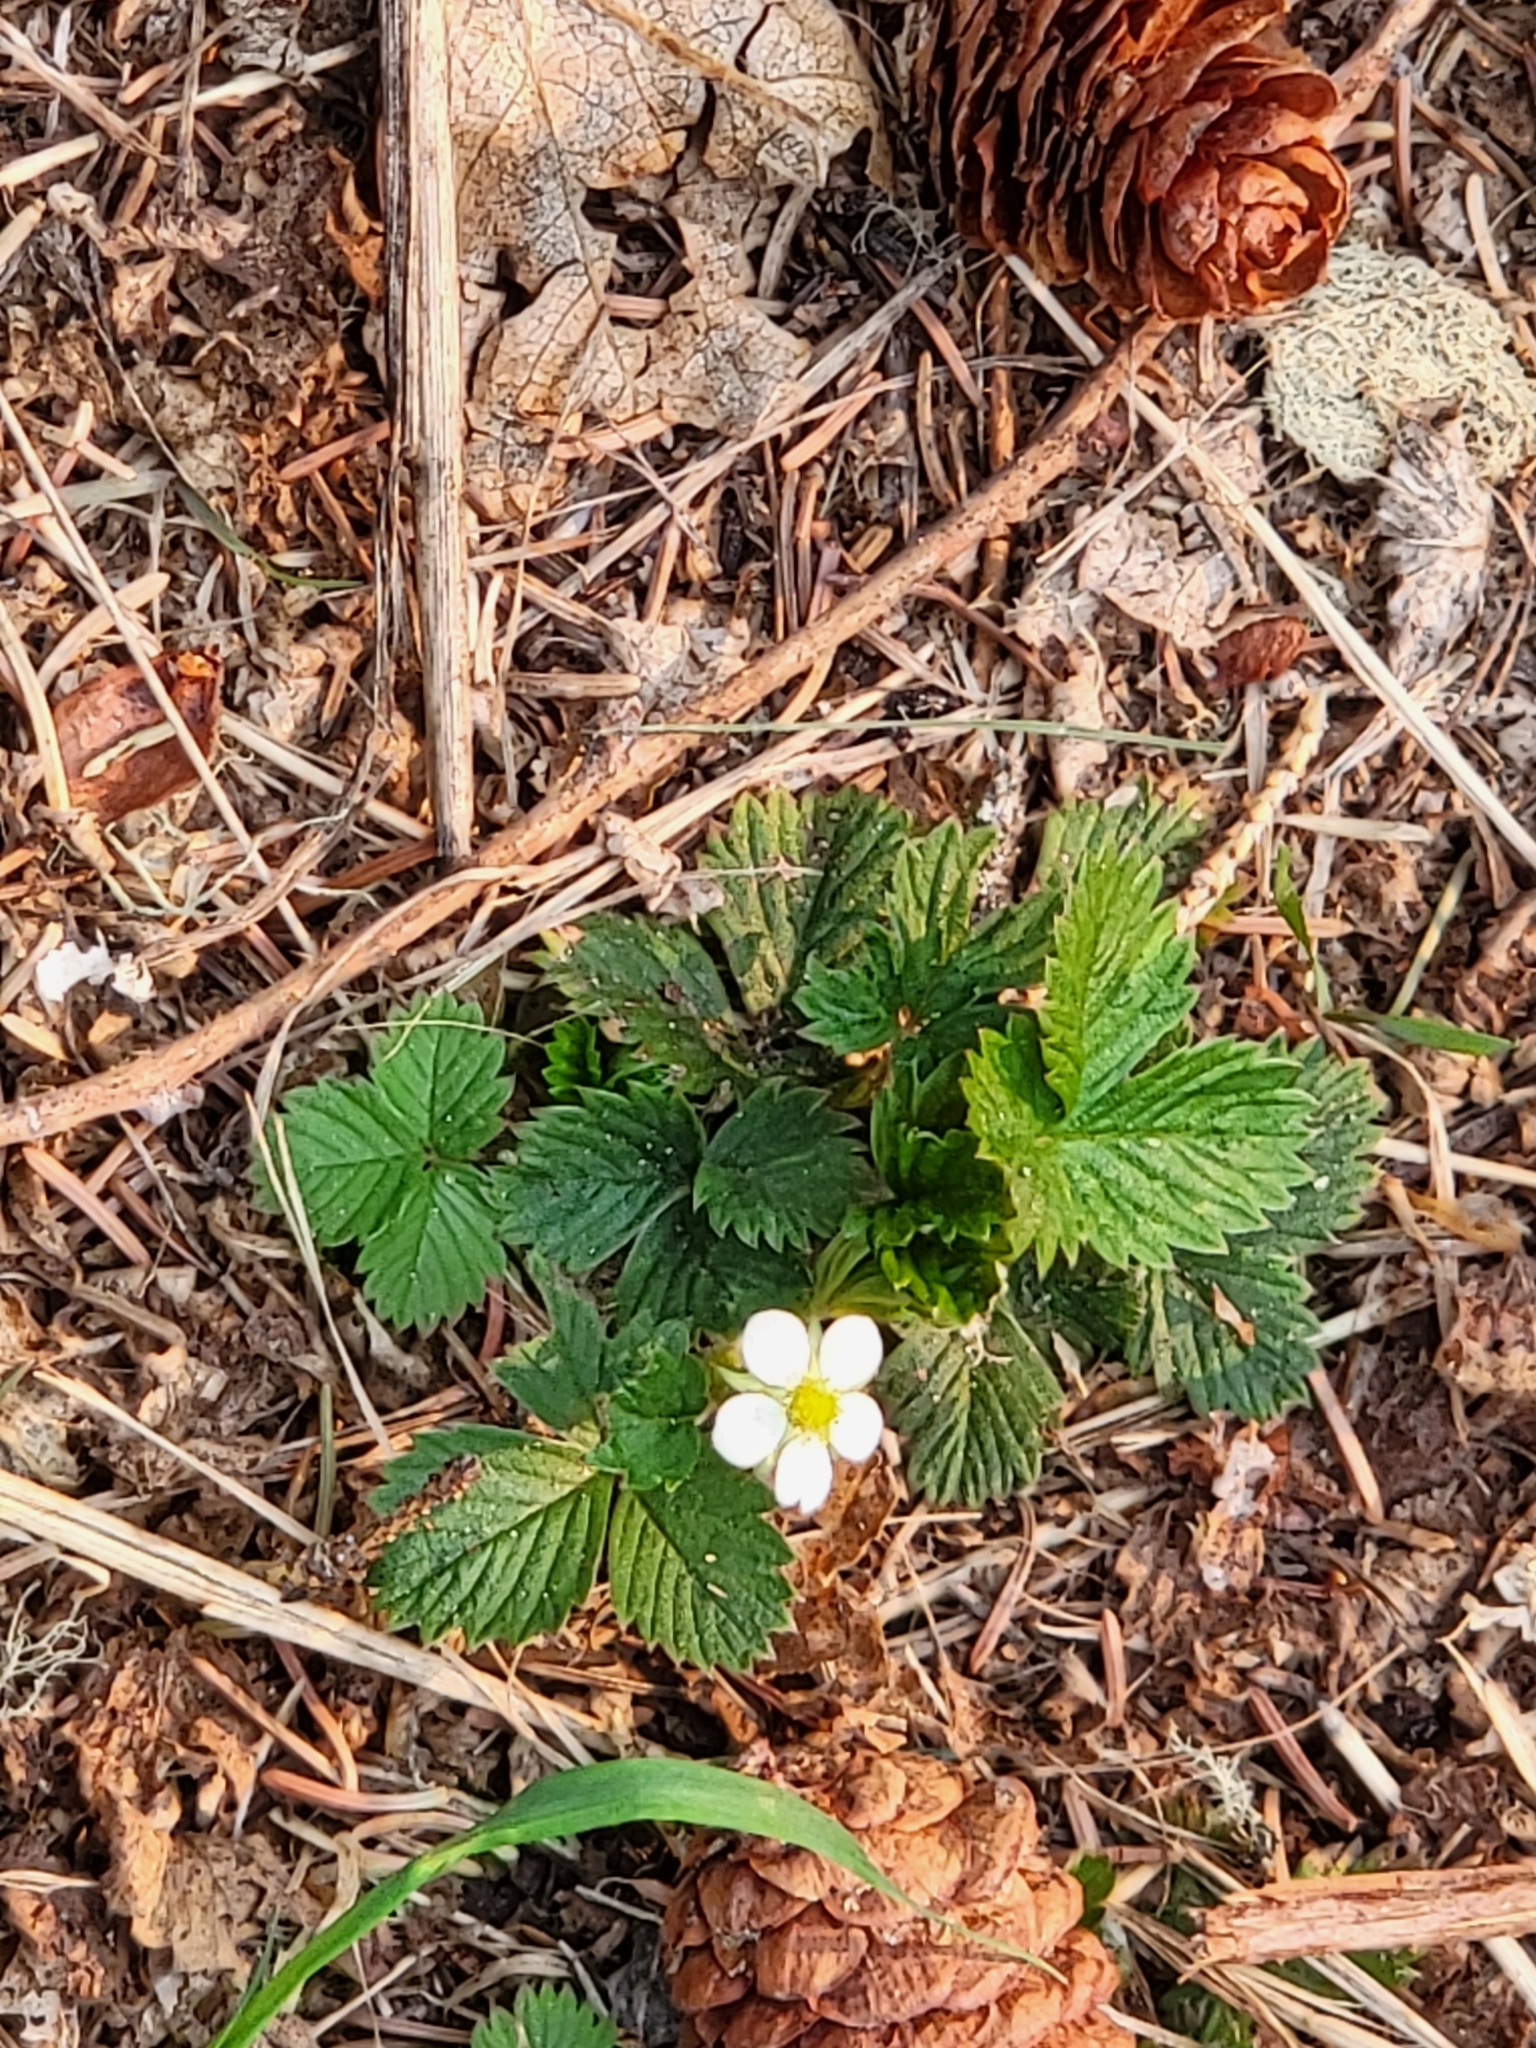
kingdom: Plantae
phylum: Tracheophyta
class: Magnoliopsida
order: Rosales
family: Rosaceae
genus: Fragaria
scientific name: Fragaria vesca
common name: Wild strawberry
